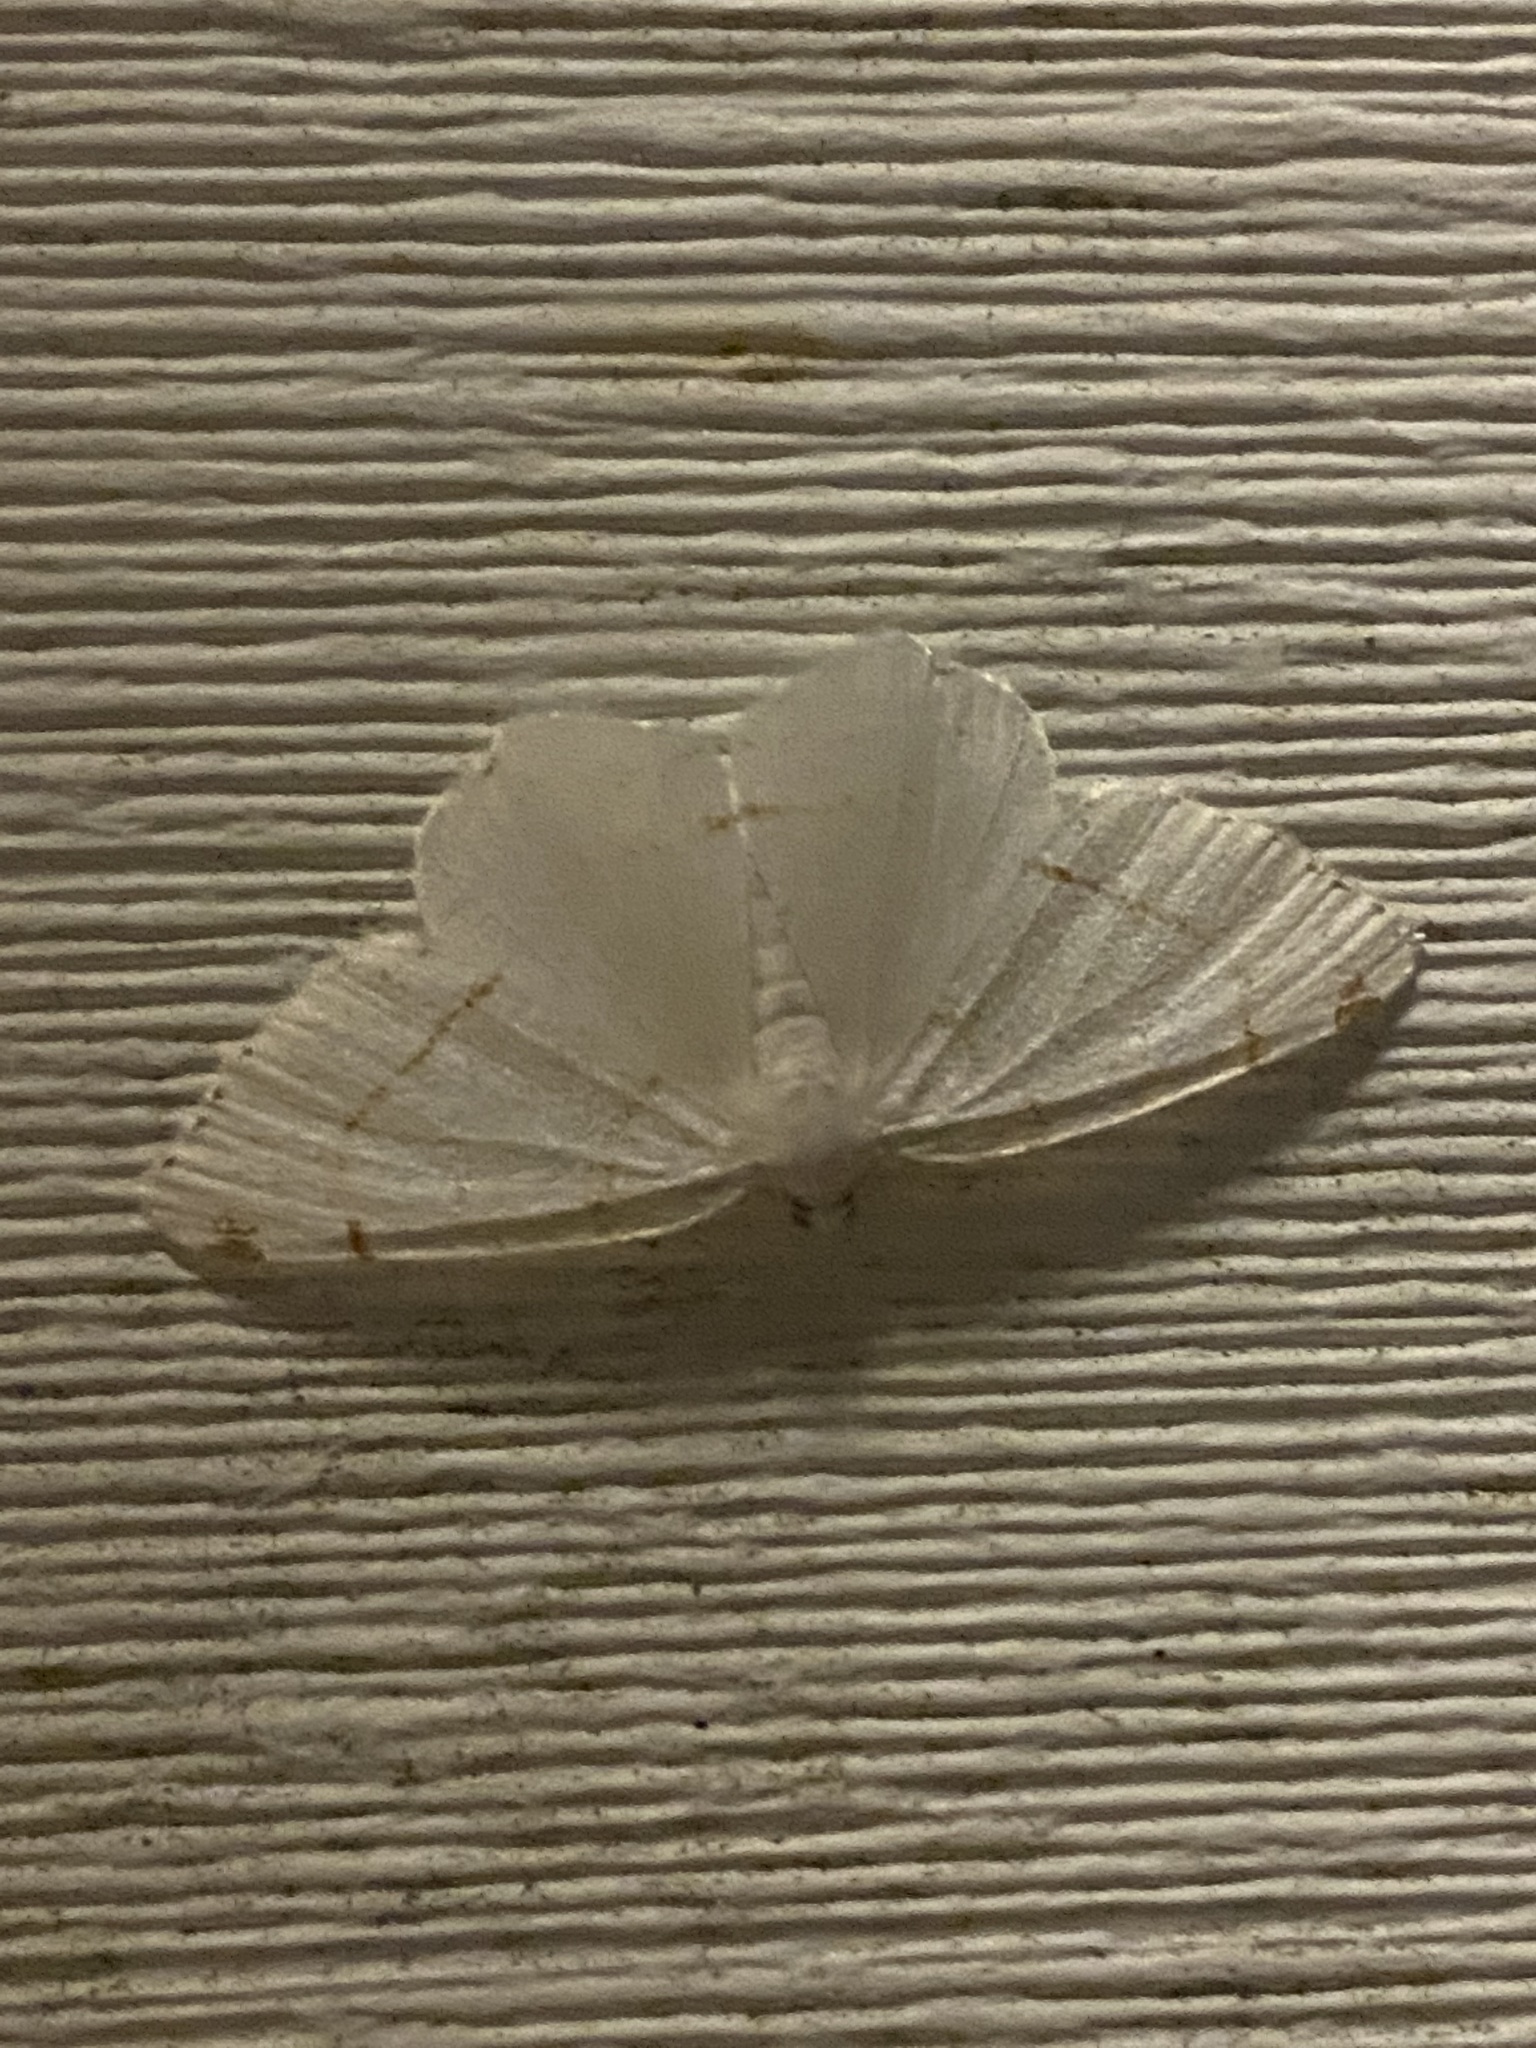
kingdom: Animalia
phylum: Arthropoda
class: Insecta
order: Lepidoptera
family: Geometridae
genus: Macaria
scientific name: Macaria pustularia
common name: Lesser maple spanworm moth
